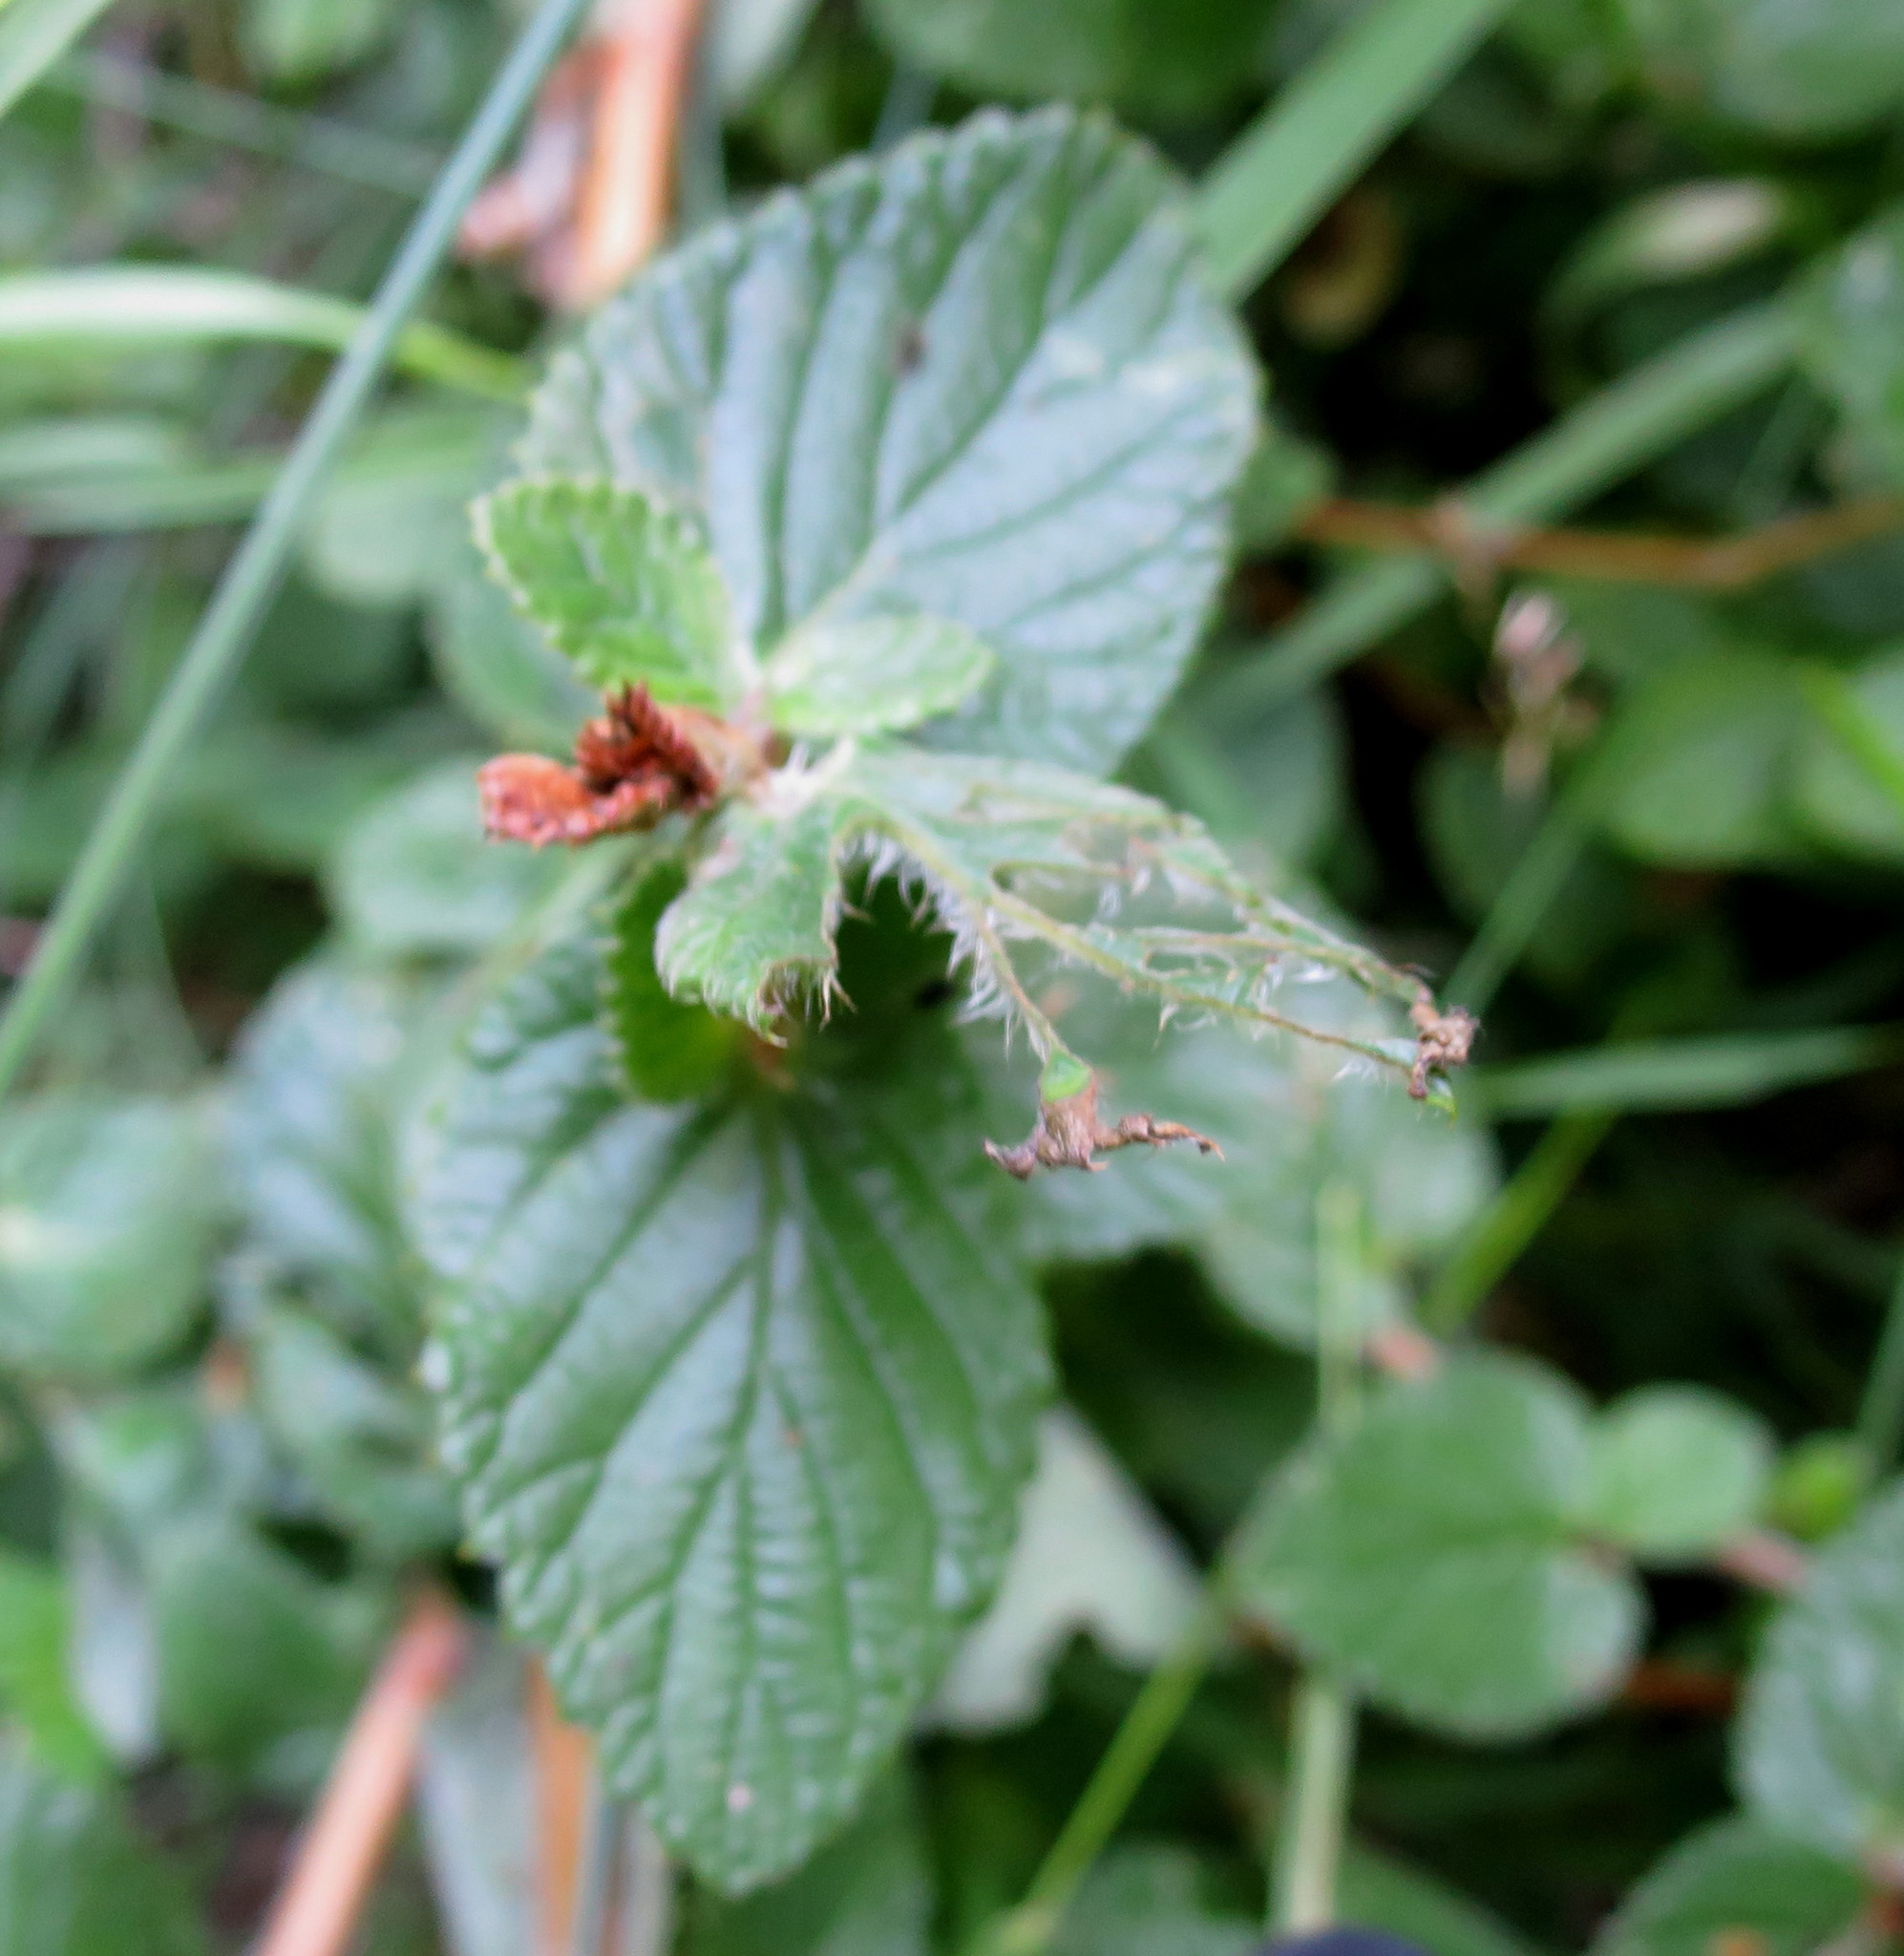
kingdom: Plantae
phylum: Tracheophyta
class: Magnoliopsida
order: Rosales
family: Rosaceae
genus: Cliffortia
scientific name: Cliffortia odorata
